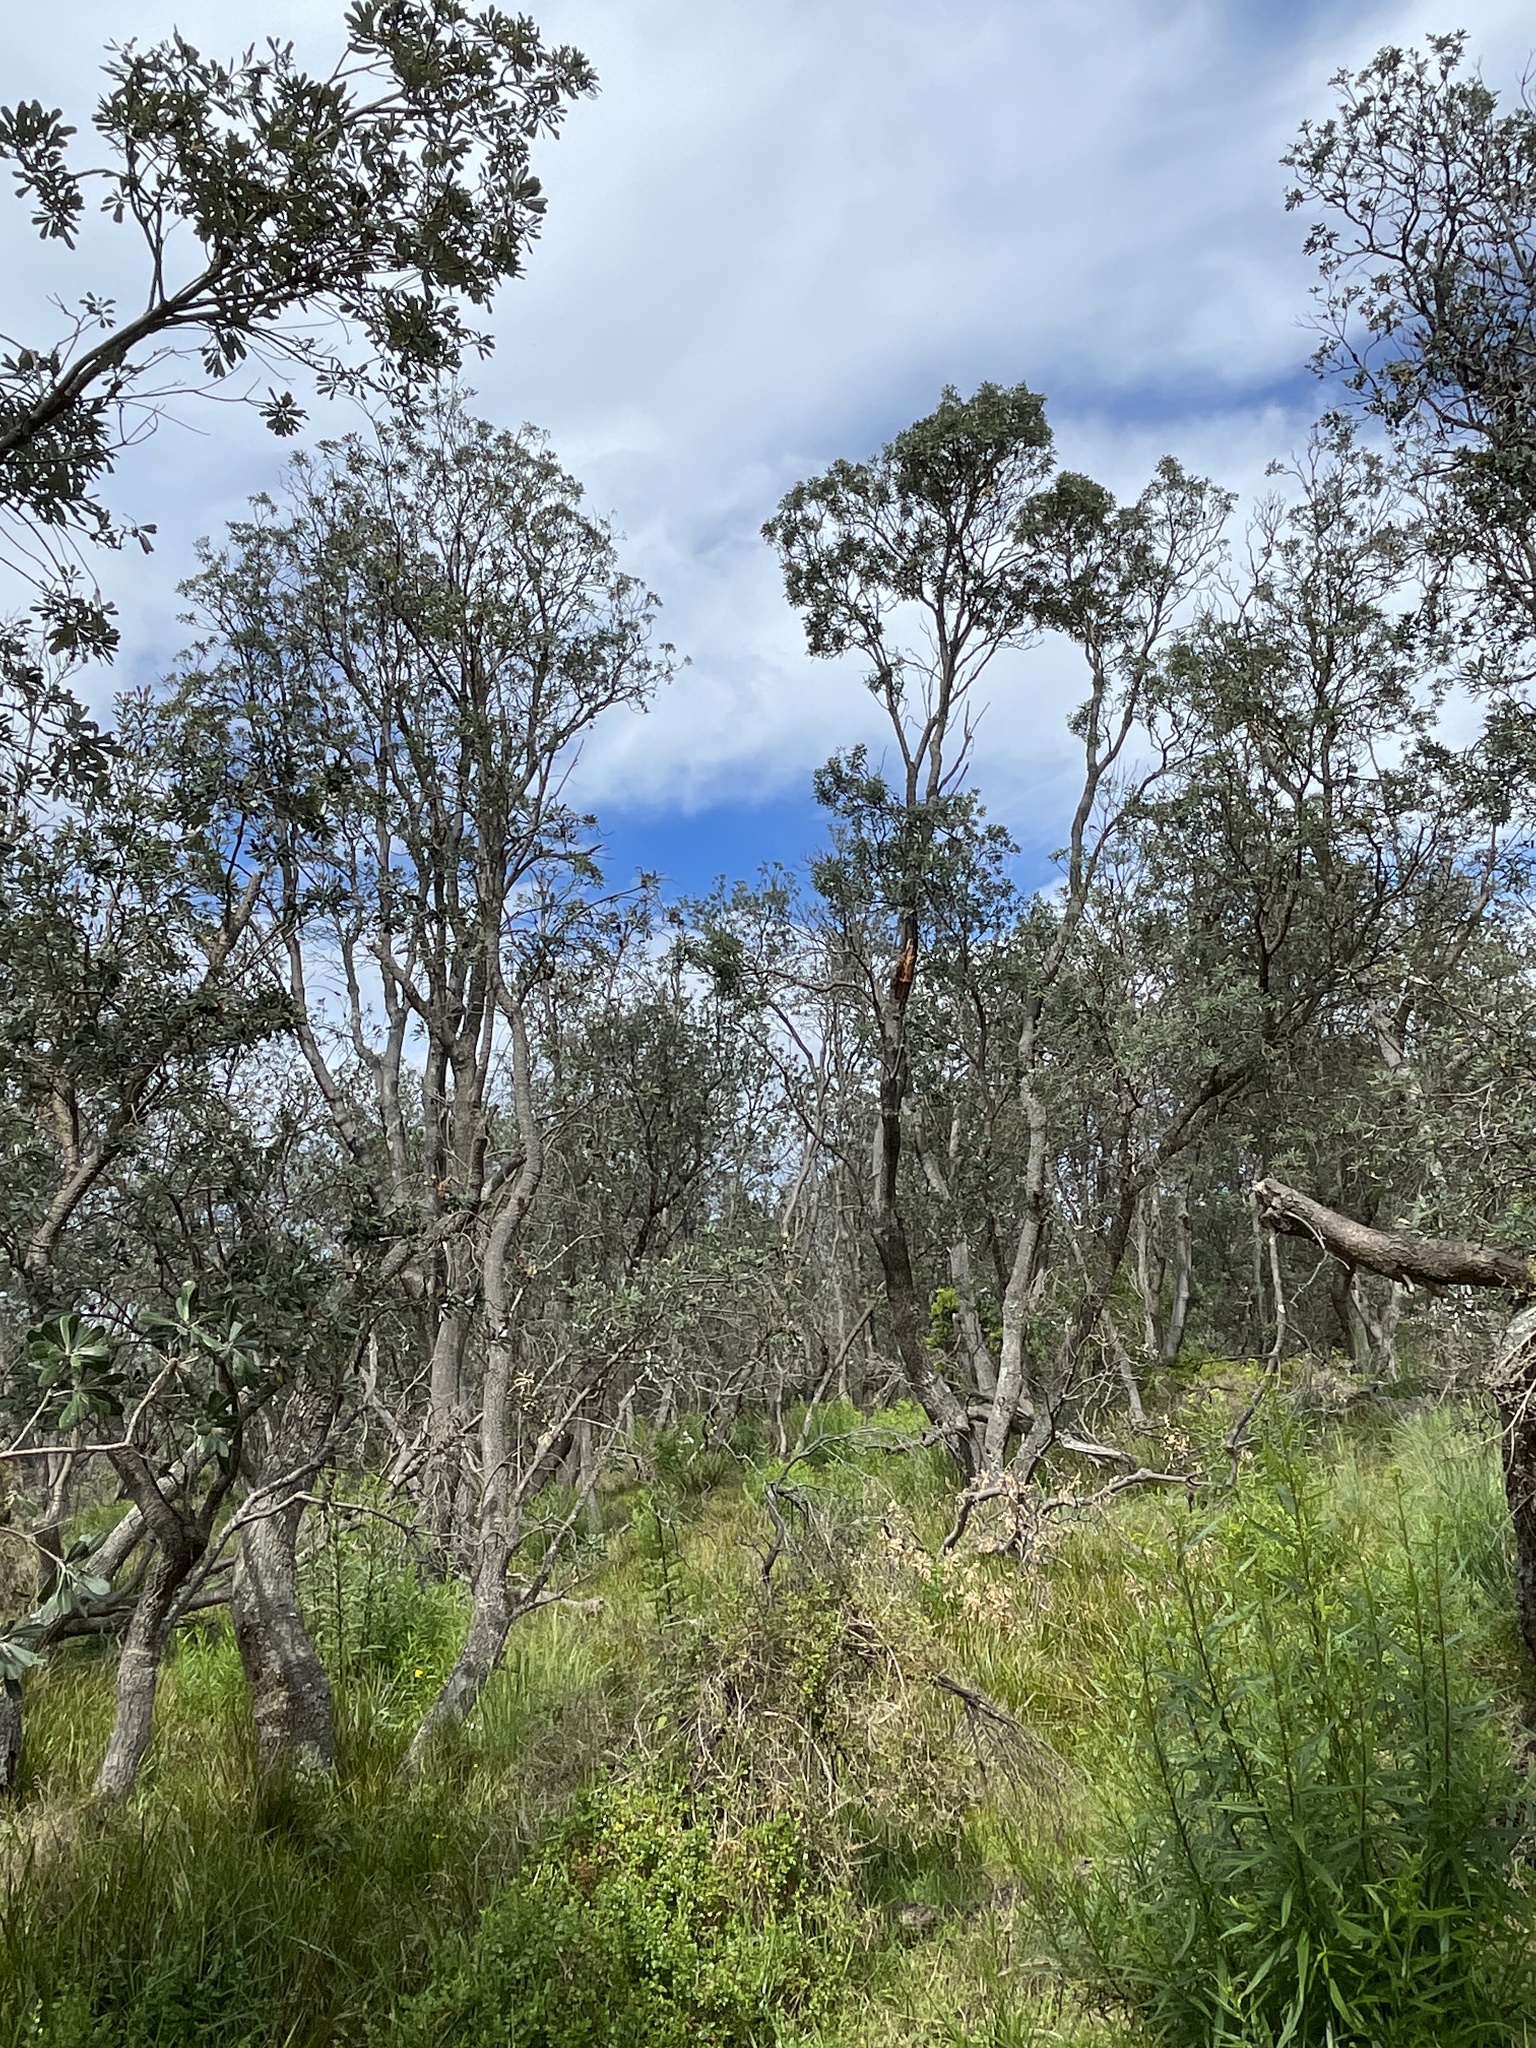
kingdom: Plantae
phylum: Tracheophyta
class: Magnoliopsida
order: Proteales
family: Proteaceae
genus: Banksia
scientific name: Banksia integrifolia
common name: White-honeysuckle
